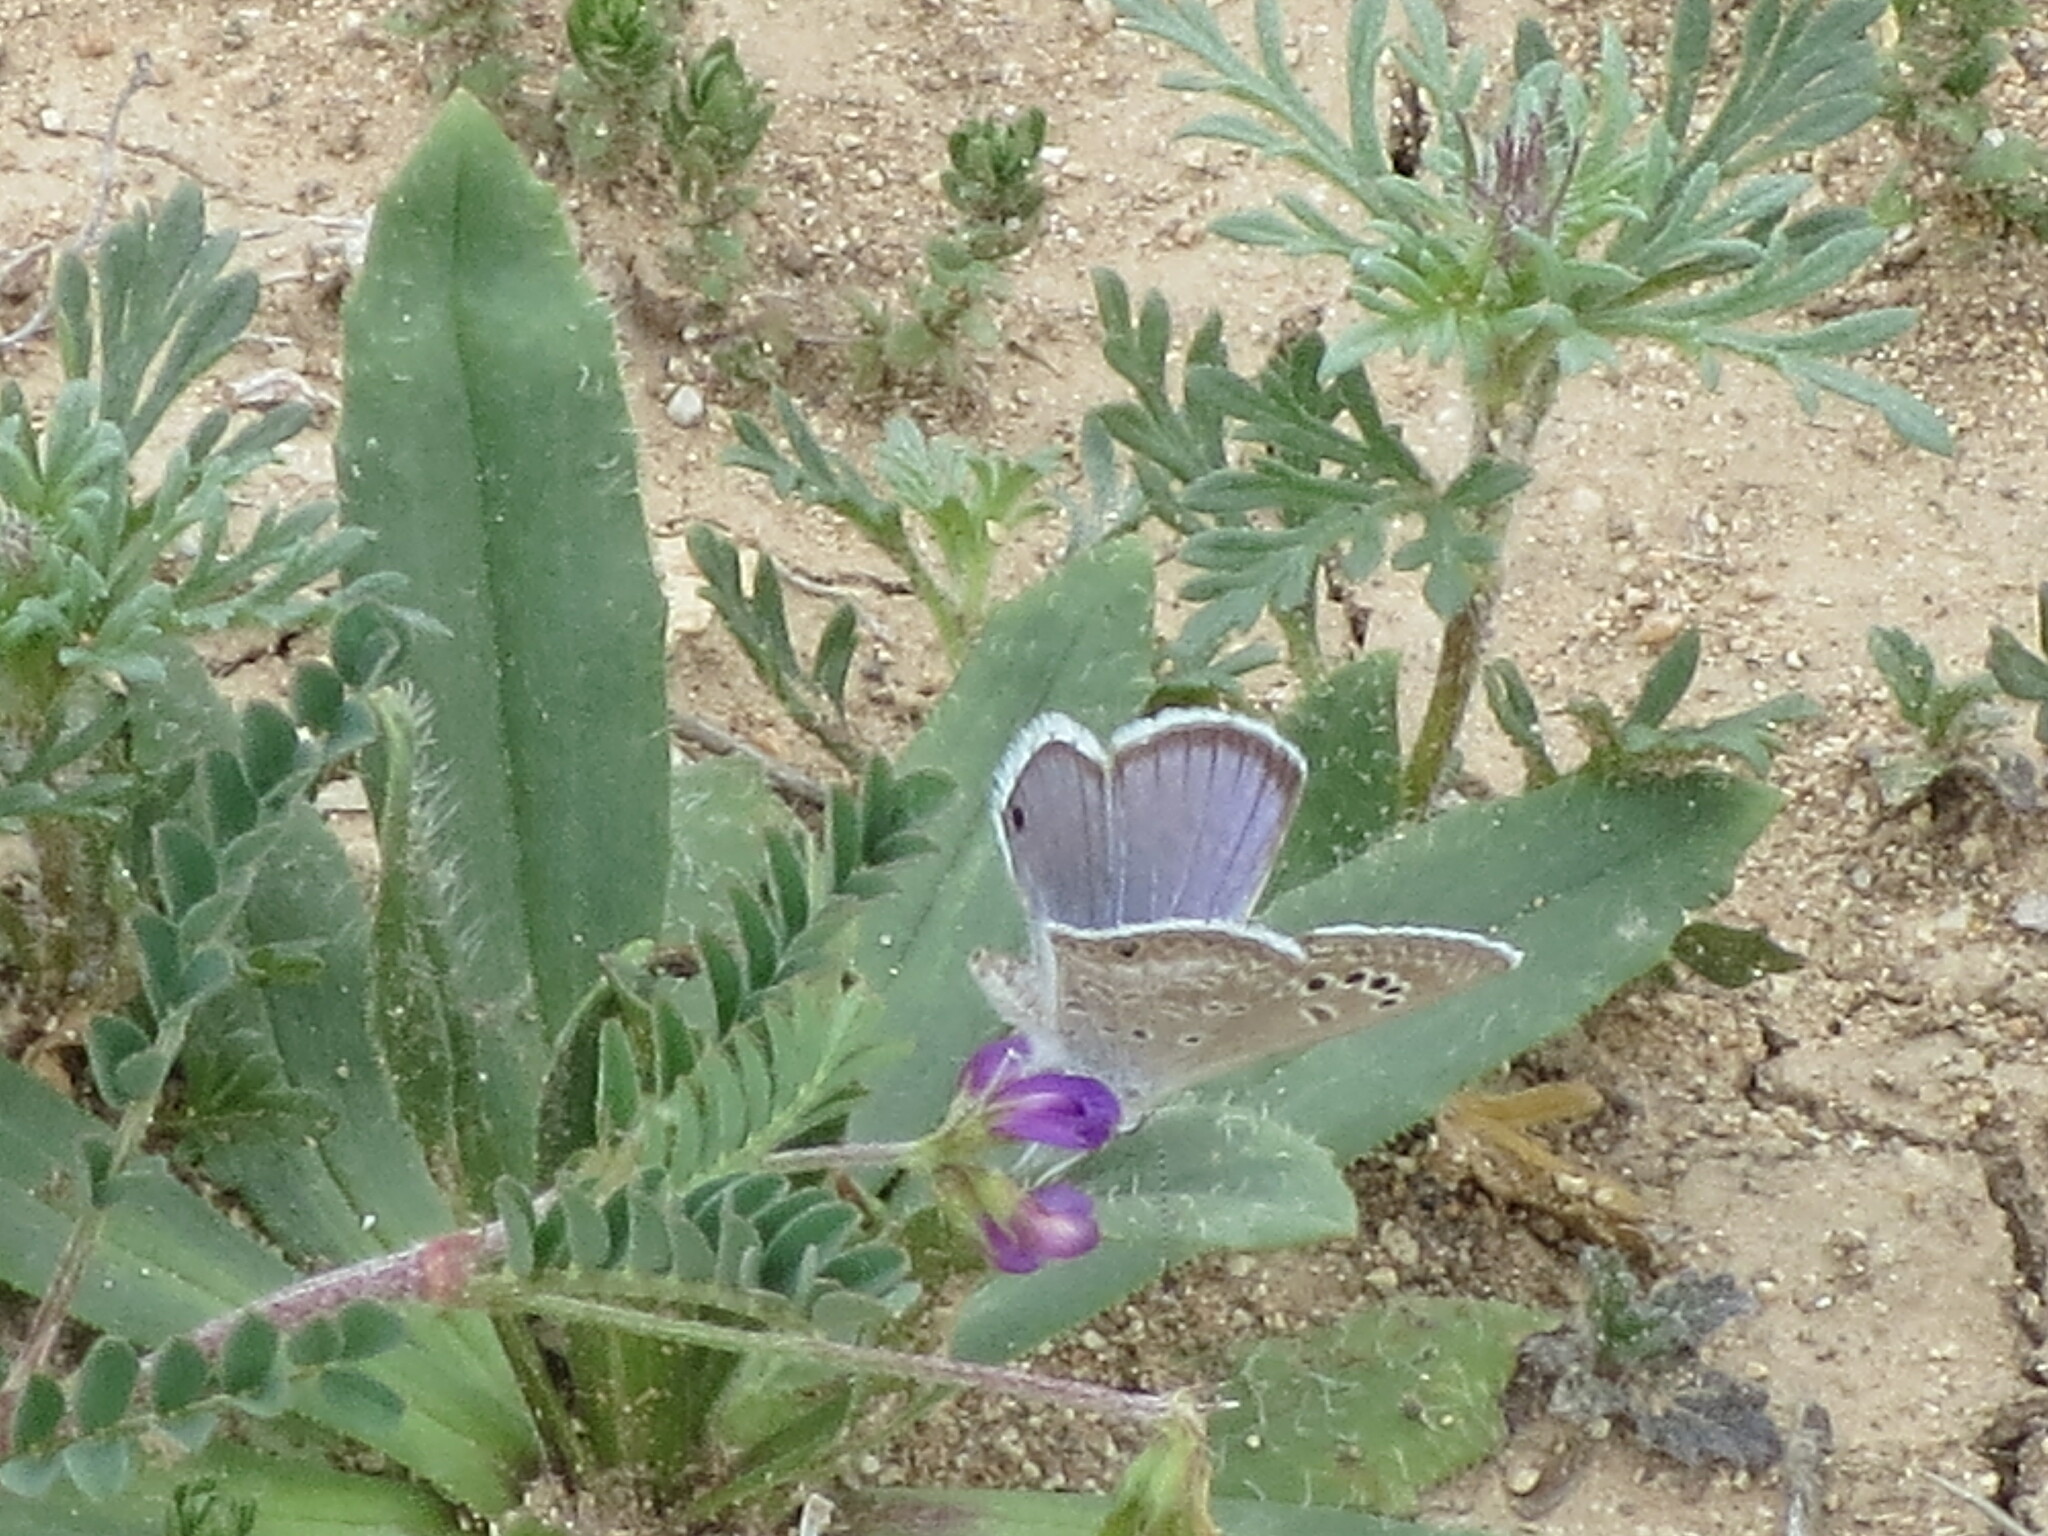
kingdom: Animalia
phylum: Arthropoda
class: Insecta
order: Lepidoptera
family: Lycaenidae
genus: Echinargus
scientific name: Echinargus isola
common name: Reakirt's blue
